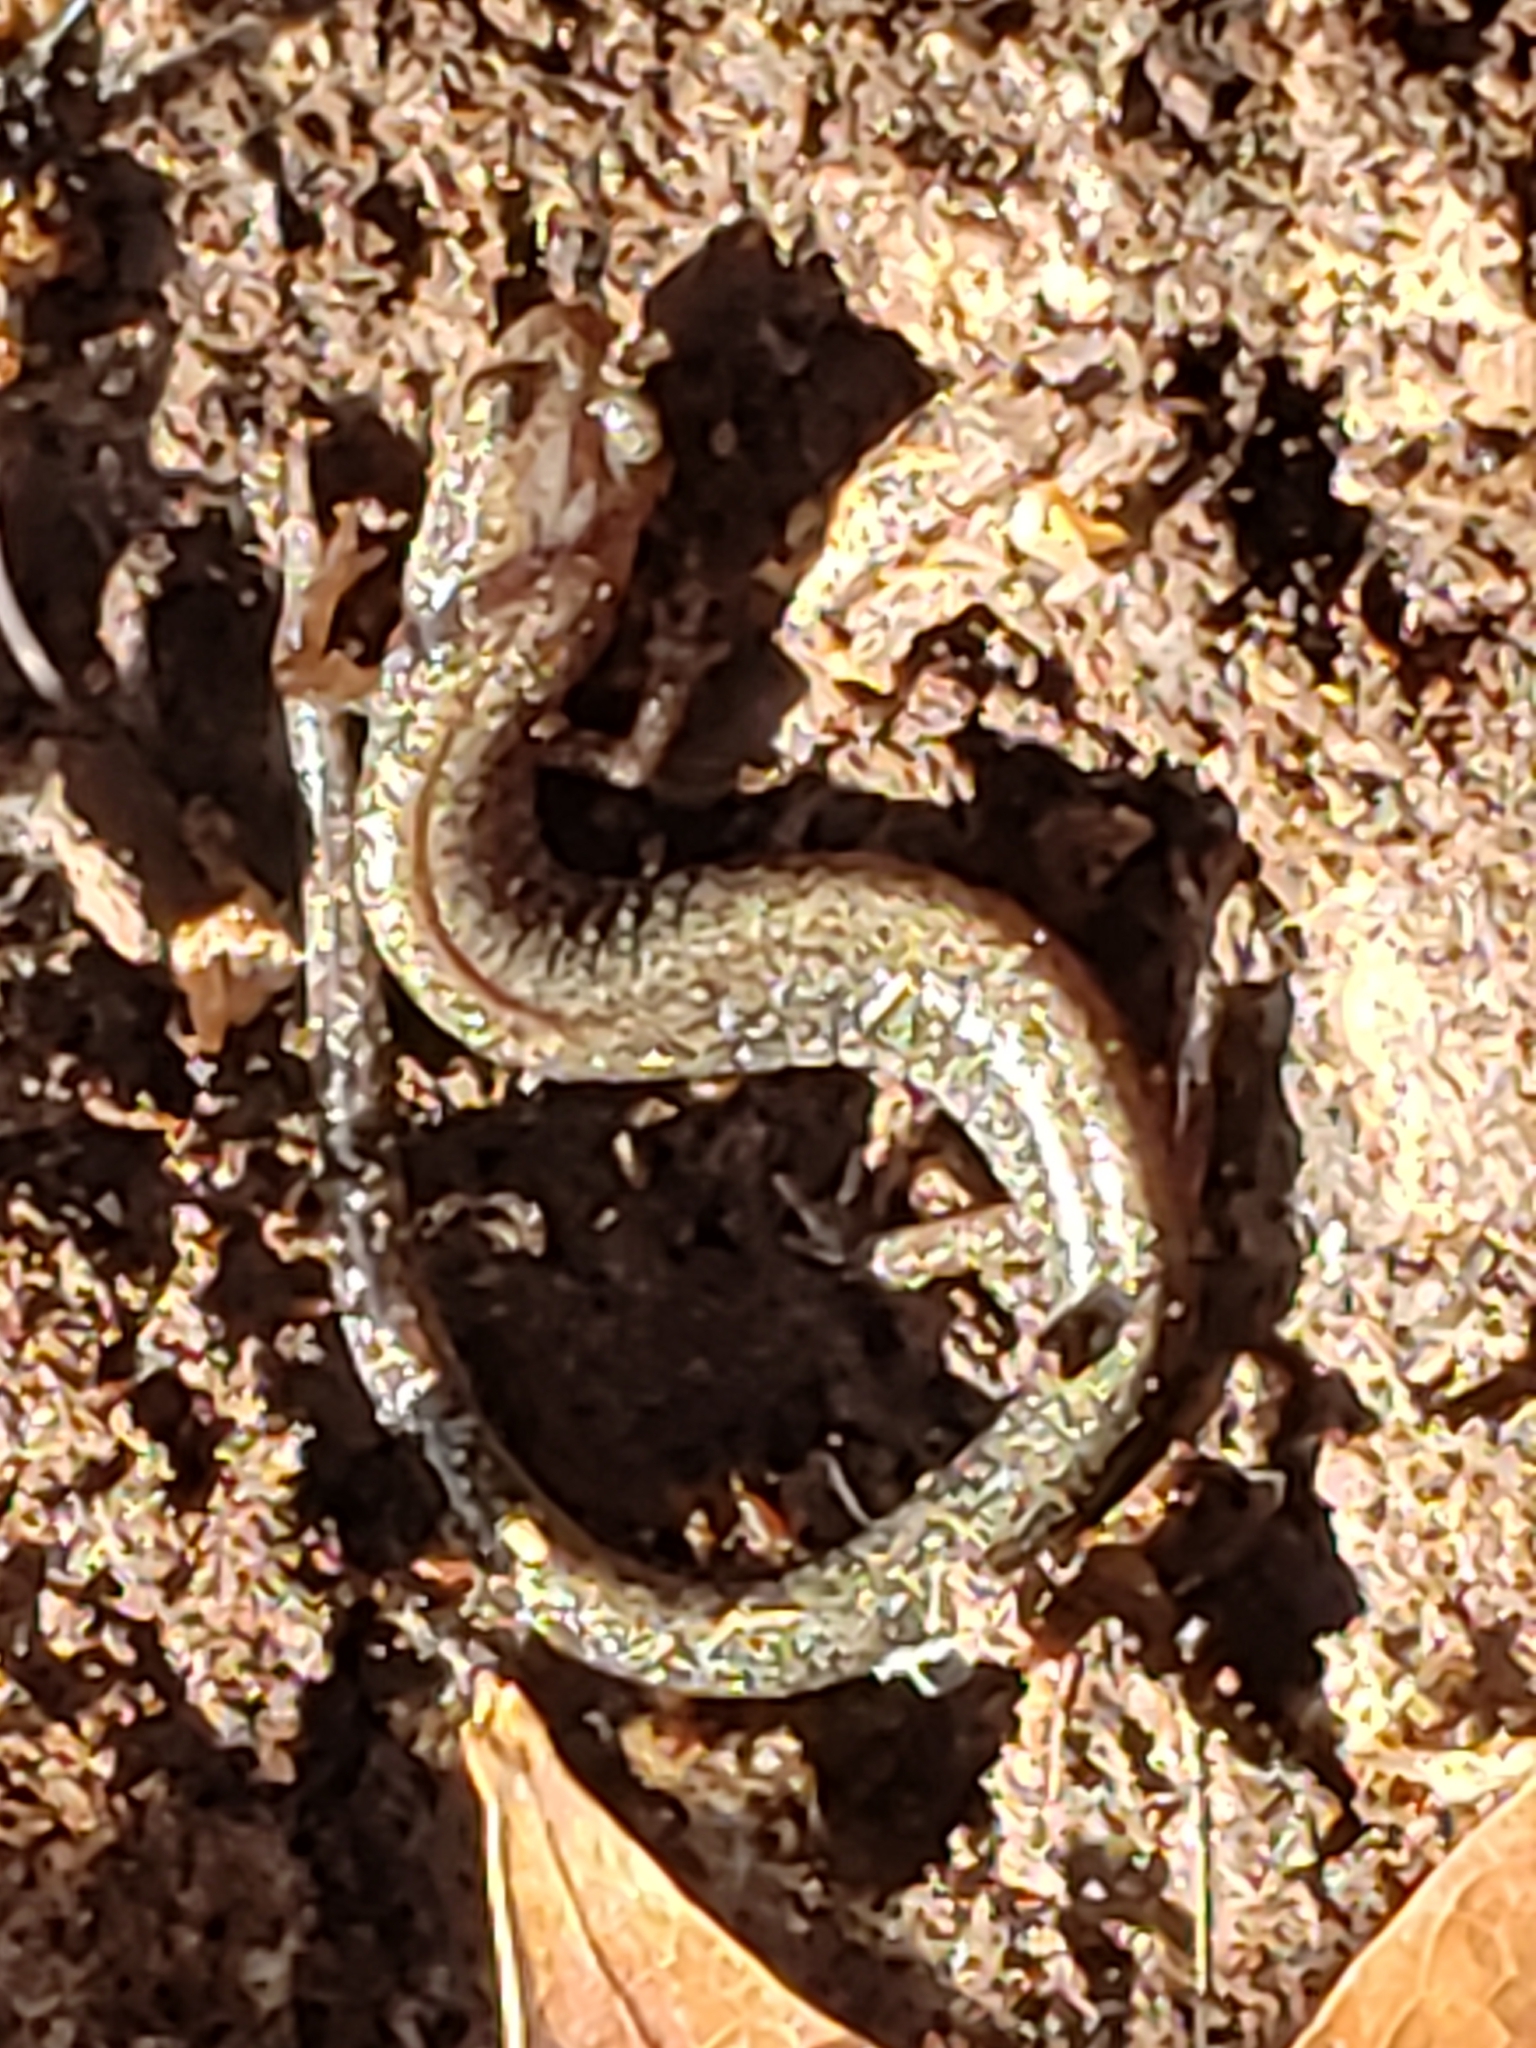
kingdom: Animalia
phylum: Chordata
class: Amphibia
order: Caudata
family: Plethodontidae
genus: Plethodon
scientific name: Plethodon cinereus
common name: Redback salamander
